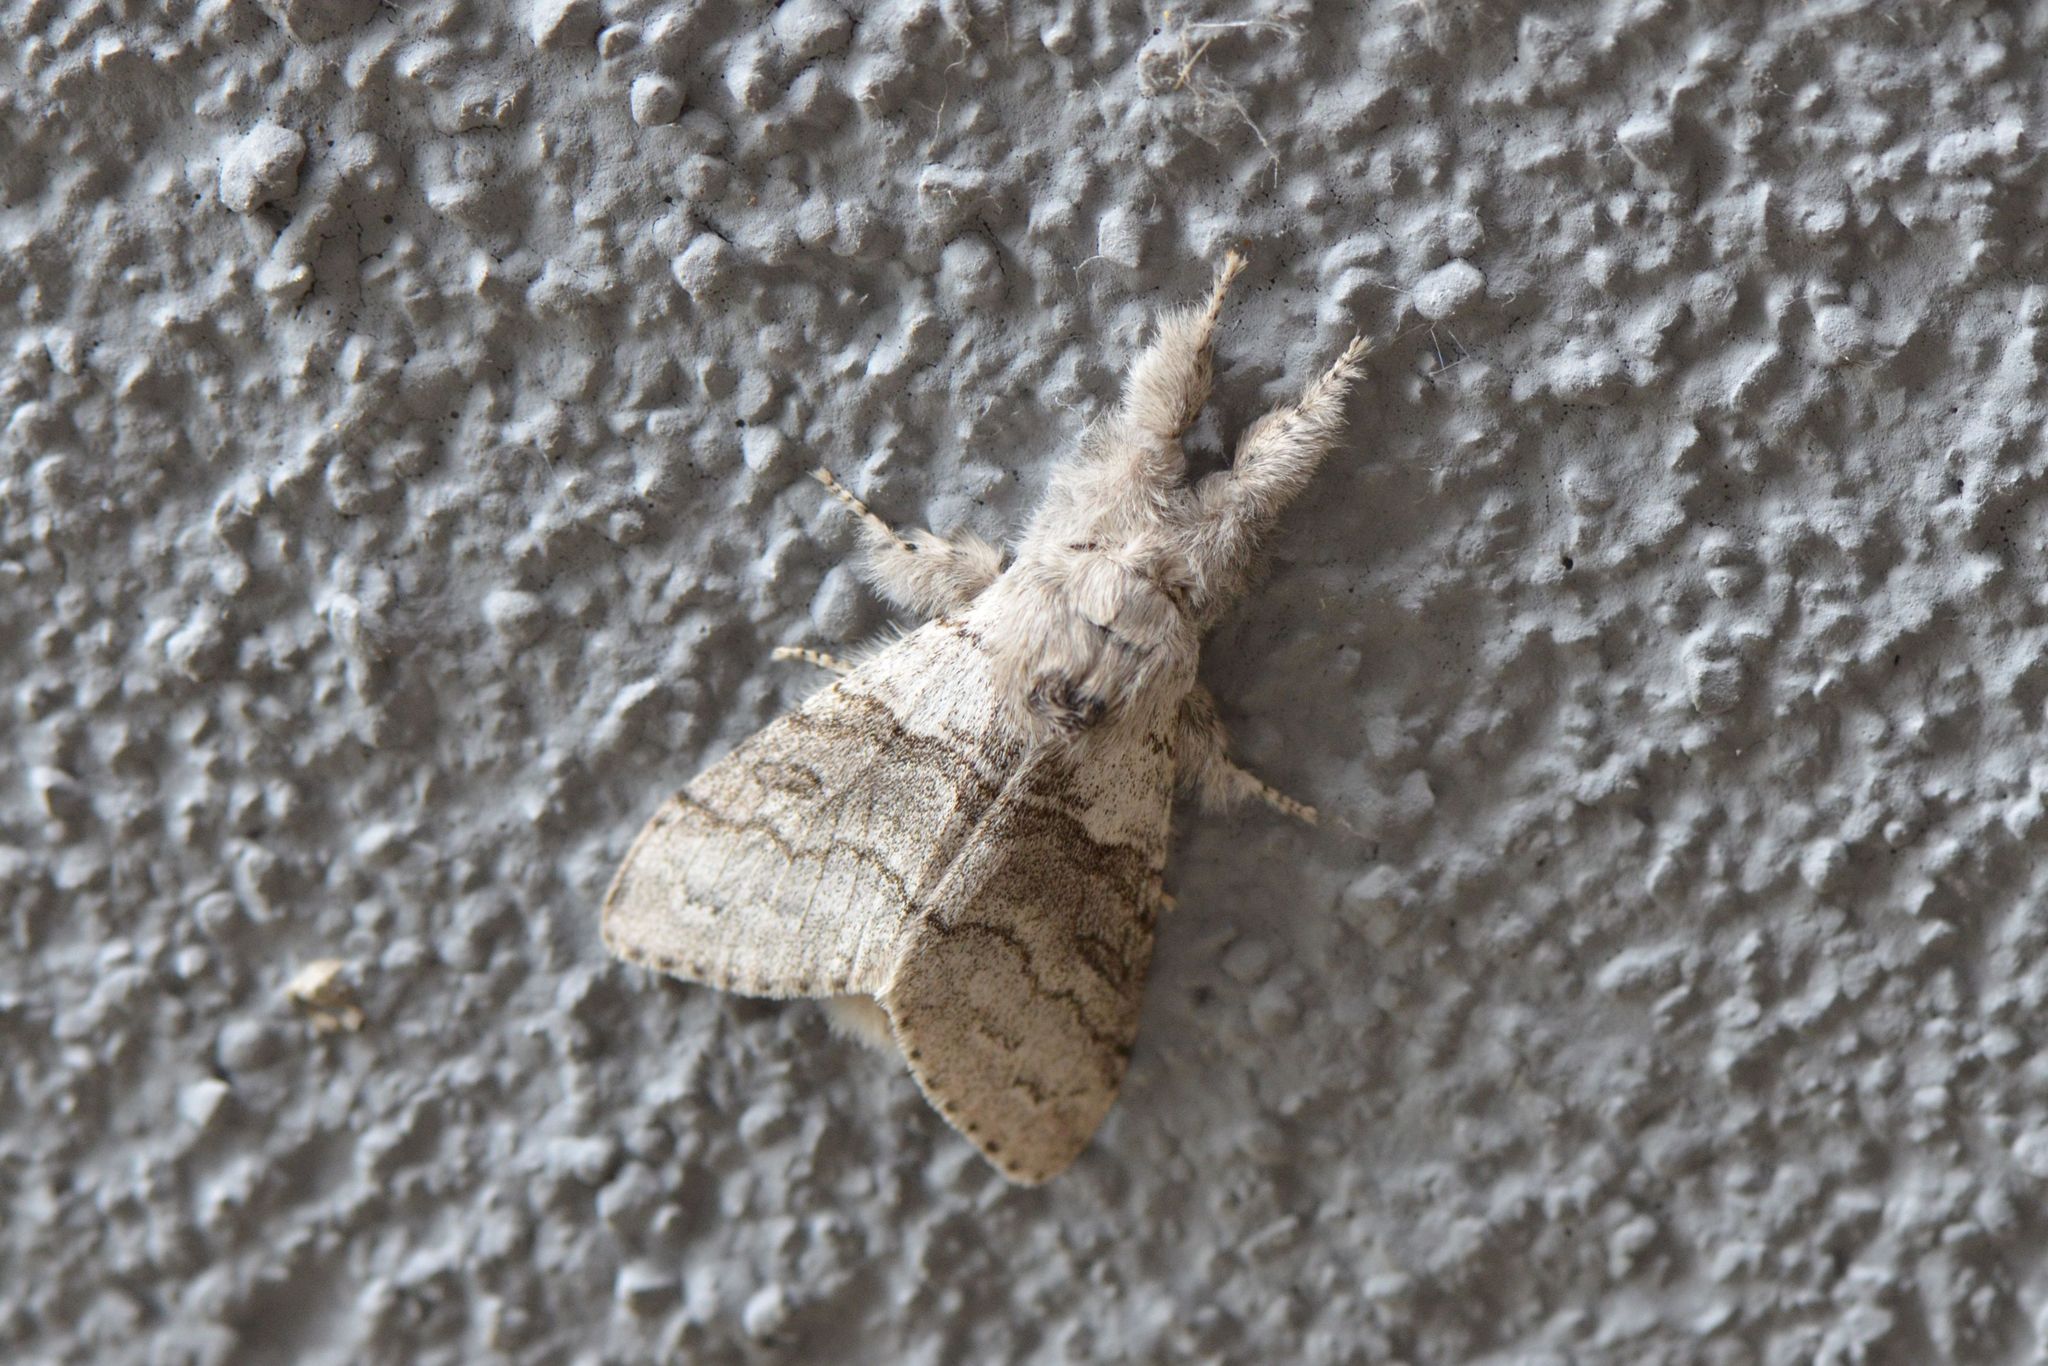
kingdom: Animalia
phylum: Arthropoda
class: Insecta
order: Lepidoptera
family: Erebidae
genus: Calliteara
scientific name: Calliteara pudibunda
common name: Pale tussock
